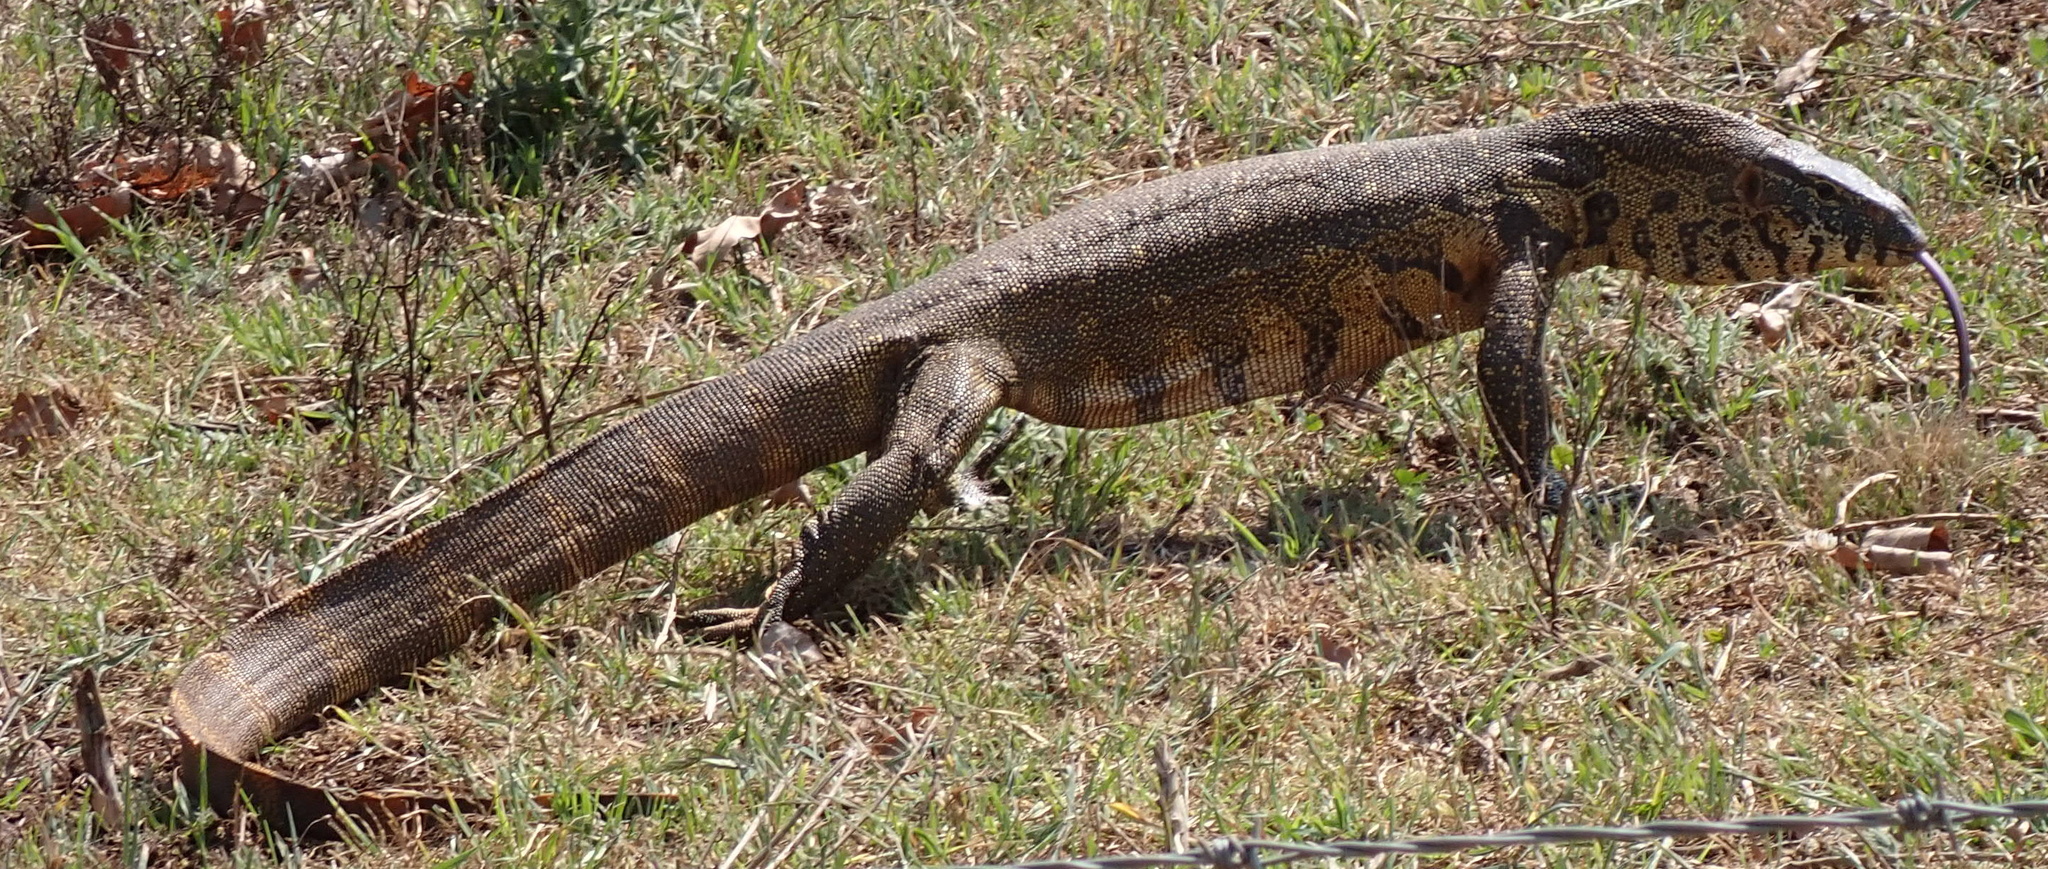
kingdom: Animalia
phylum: Chordata
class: Squamata
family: Varanidae
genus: Varanus
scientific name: Varanus niloticus
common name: Nile monitor
